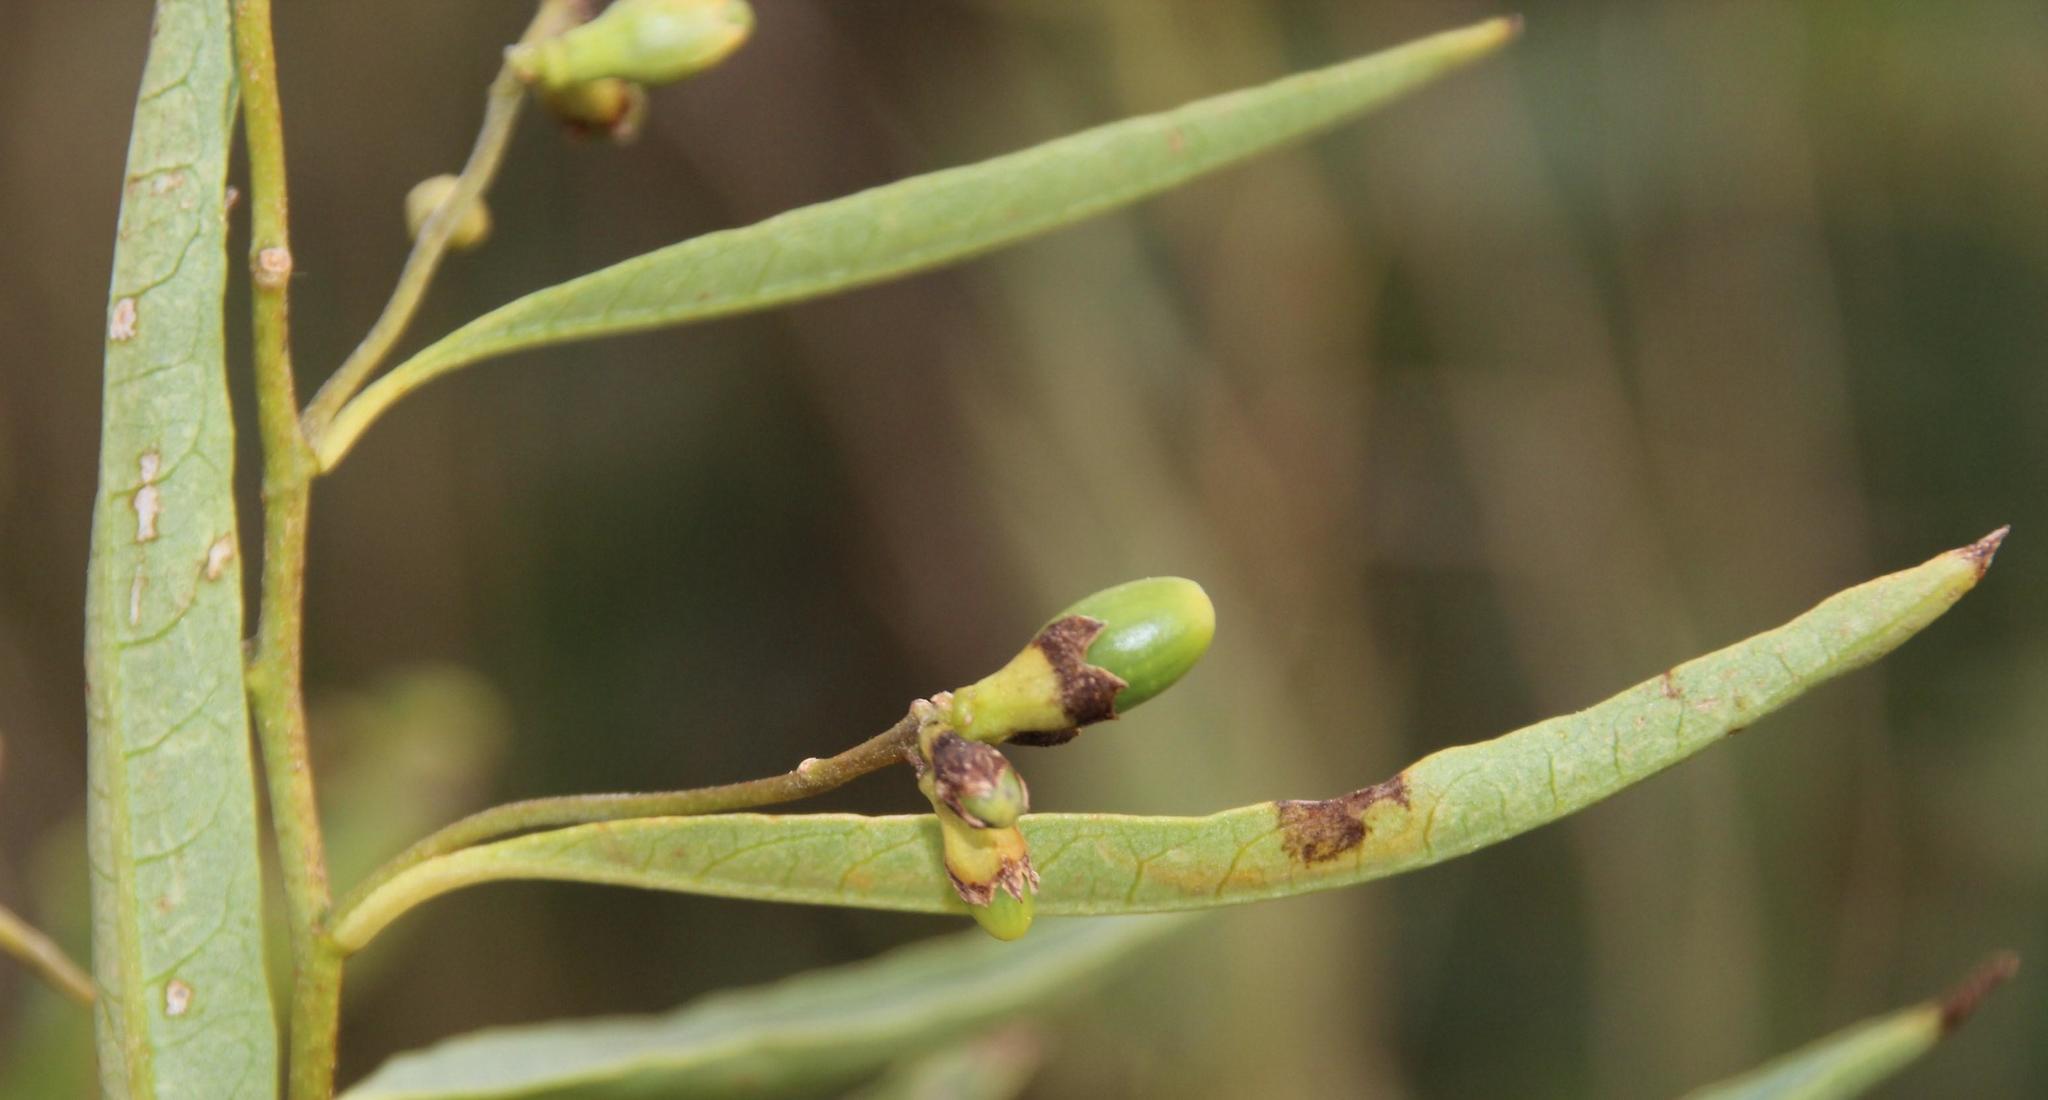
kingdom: Plantae
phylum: Tracheophyta
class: Magnoliopsida
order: Solanales
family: Solanaceae
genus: Cestrum
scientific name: Cestrum parqui
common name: Chilean cestrum
